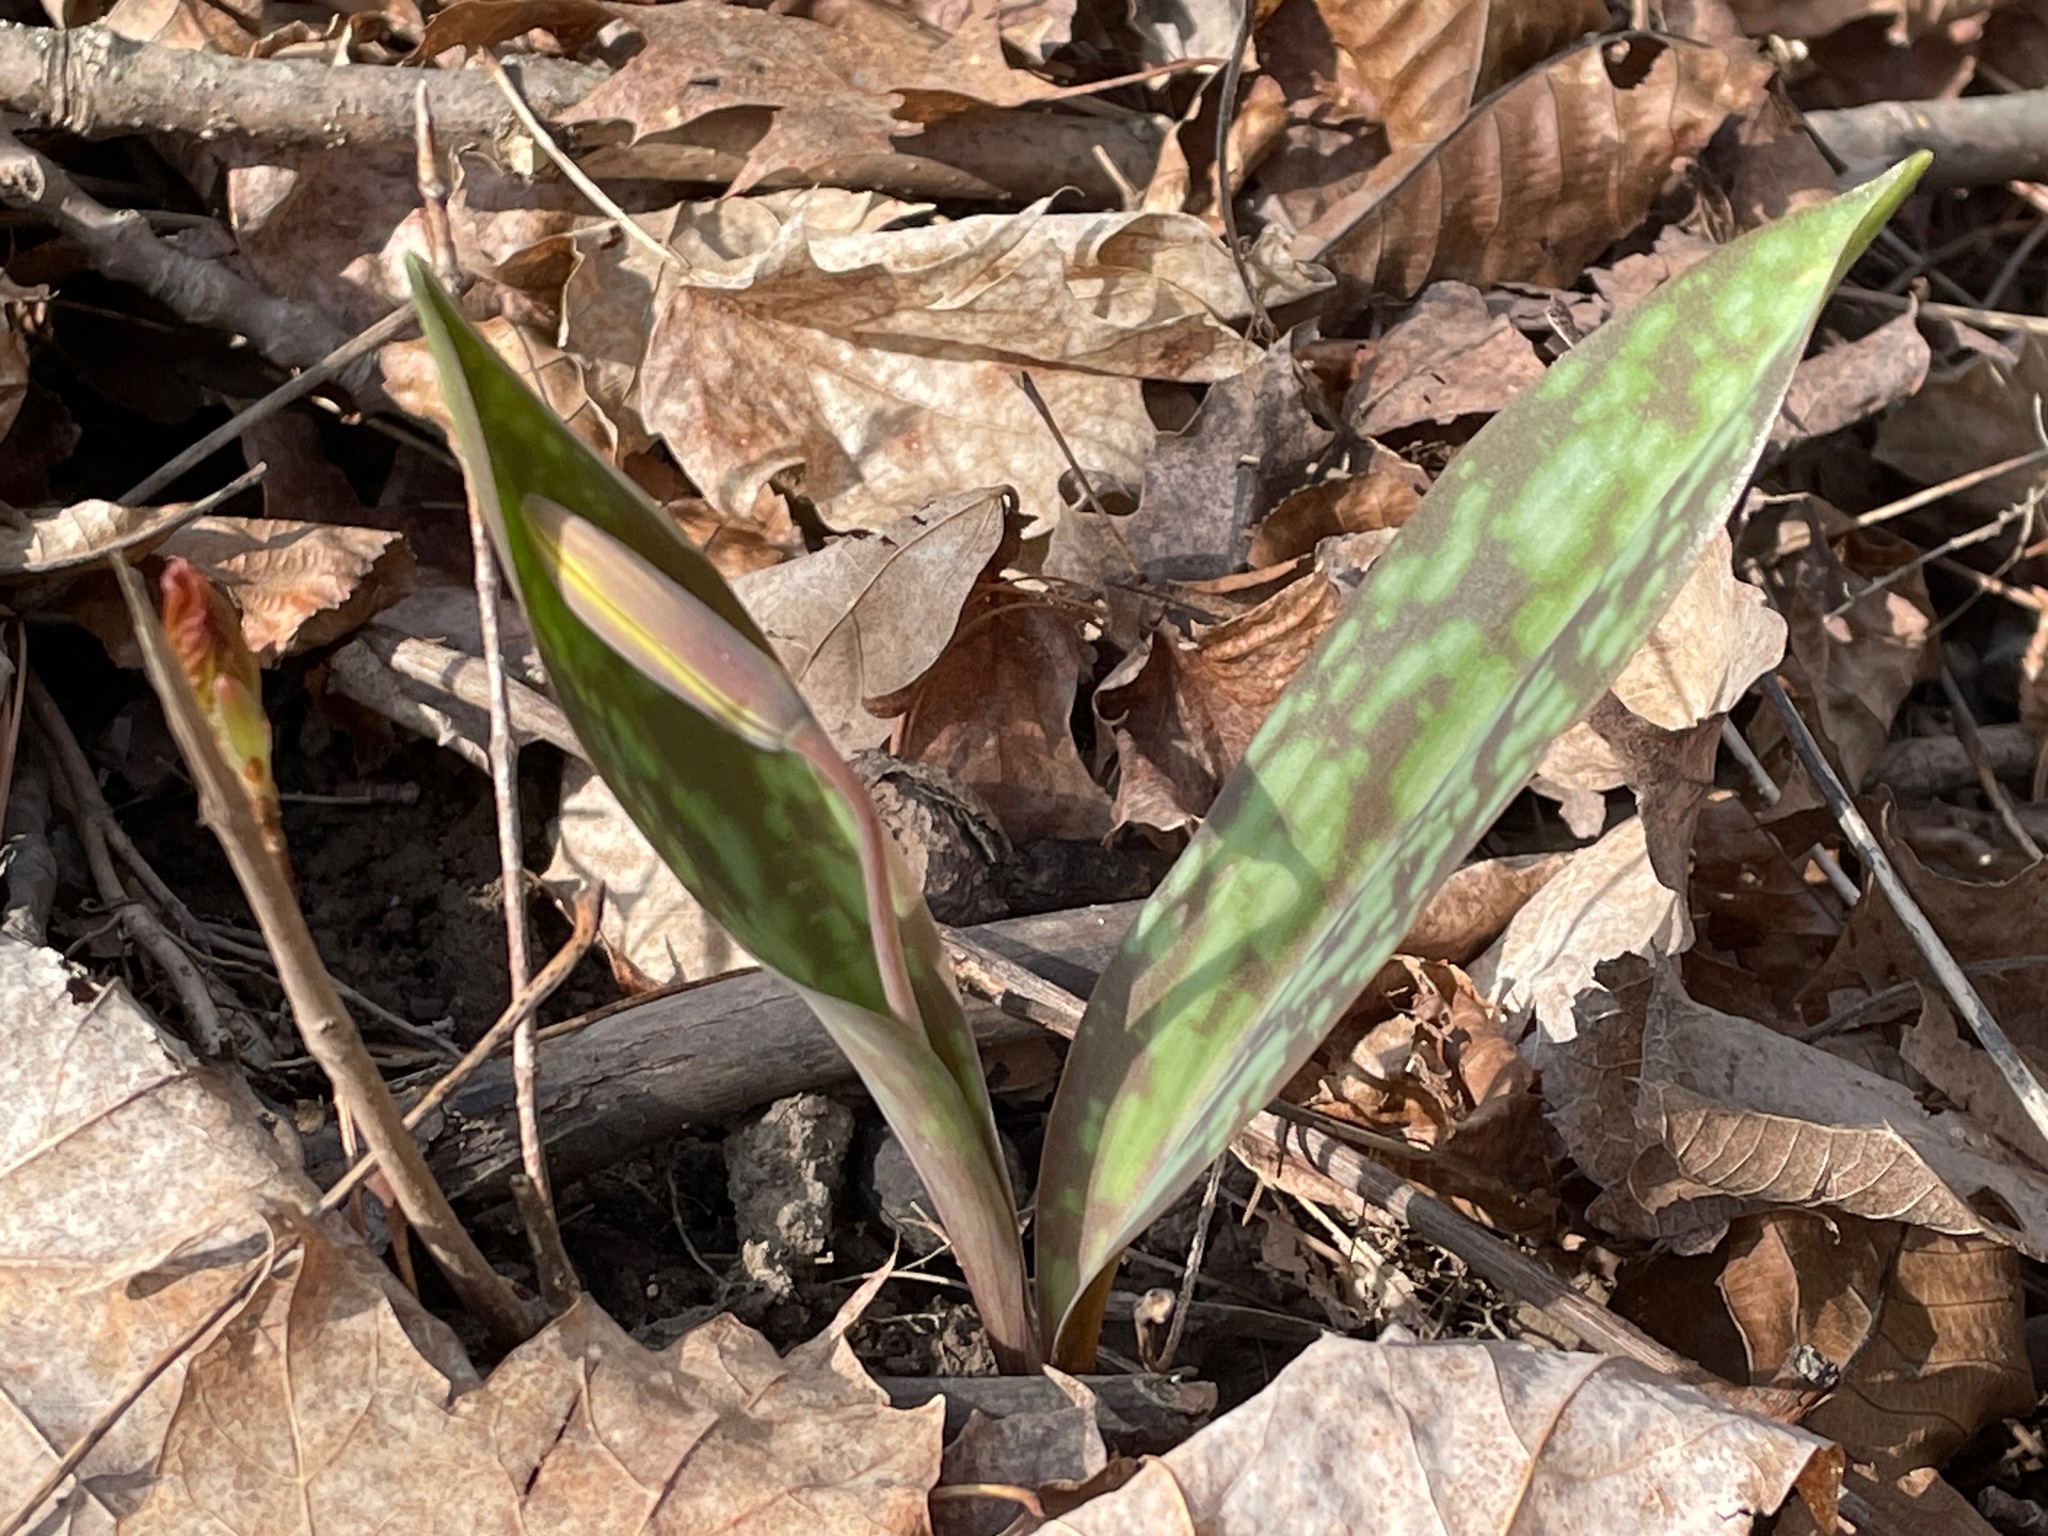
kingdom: Plantae
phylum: Tracheophyta
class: Liliopsida
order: Liliales
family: Liliaceae
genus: Erythronium
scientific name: Erythronium americanum
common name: Yellow adder's-tongue
